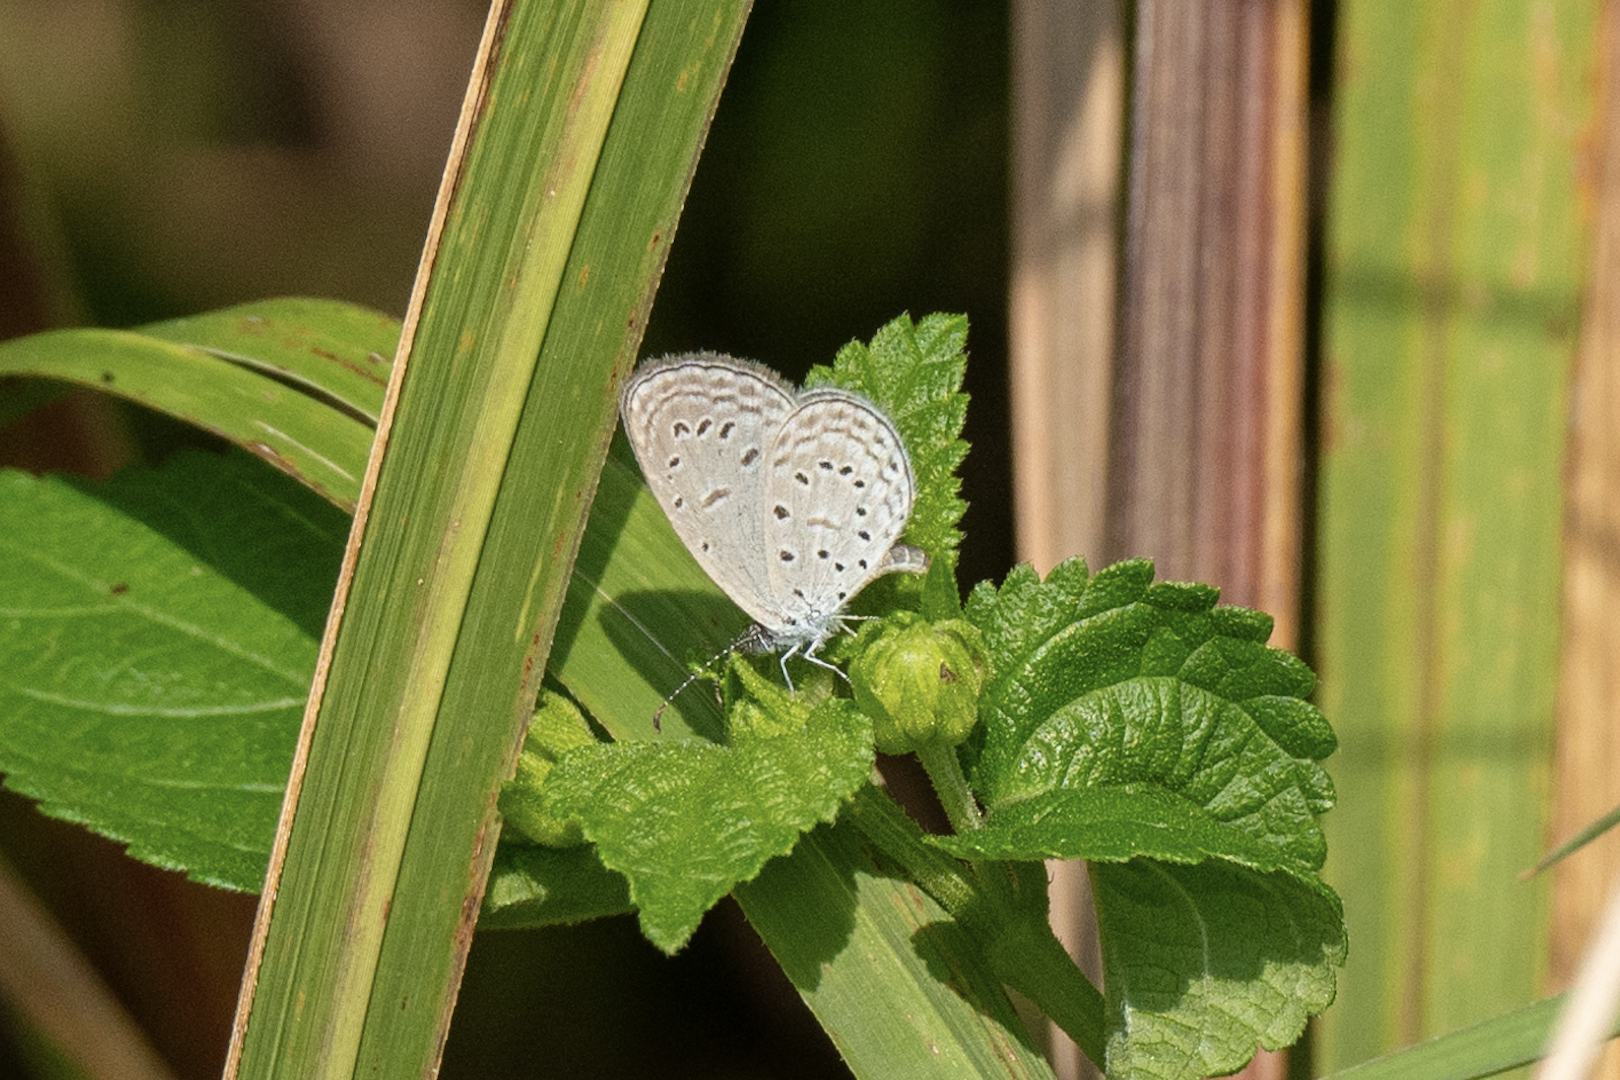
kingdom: Animalia
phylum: Arthropoda
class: Insecta
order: Lepidoptera
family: Lycaenidae
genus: Zizula
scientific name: Zizula hylax
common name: Gaika blue
